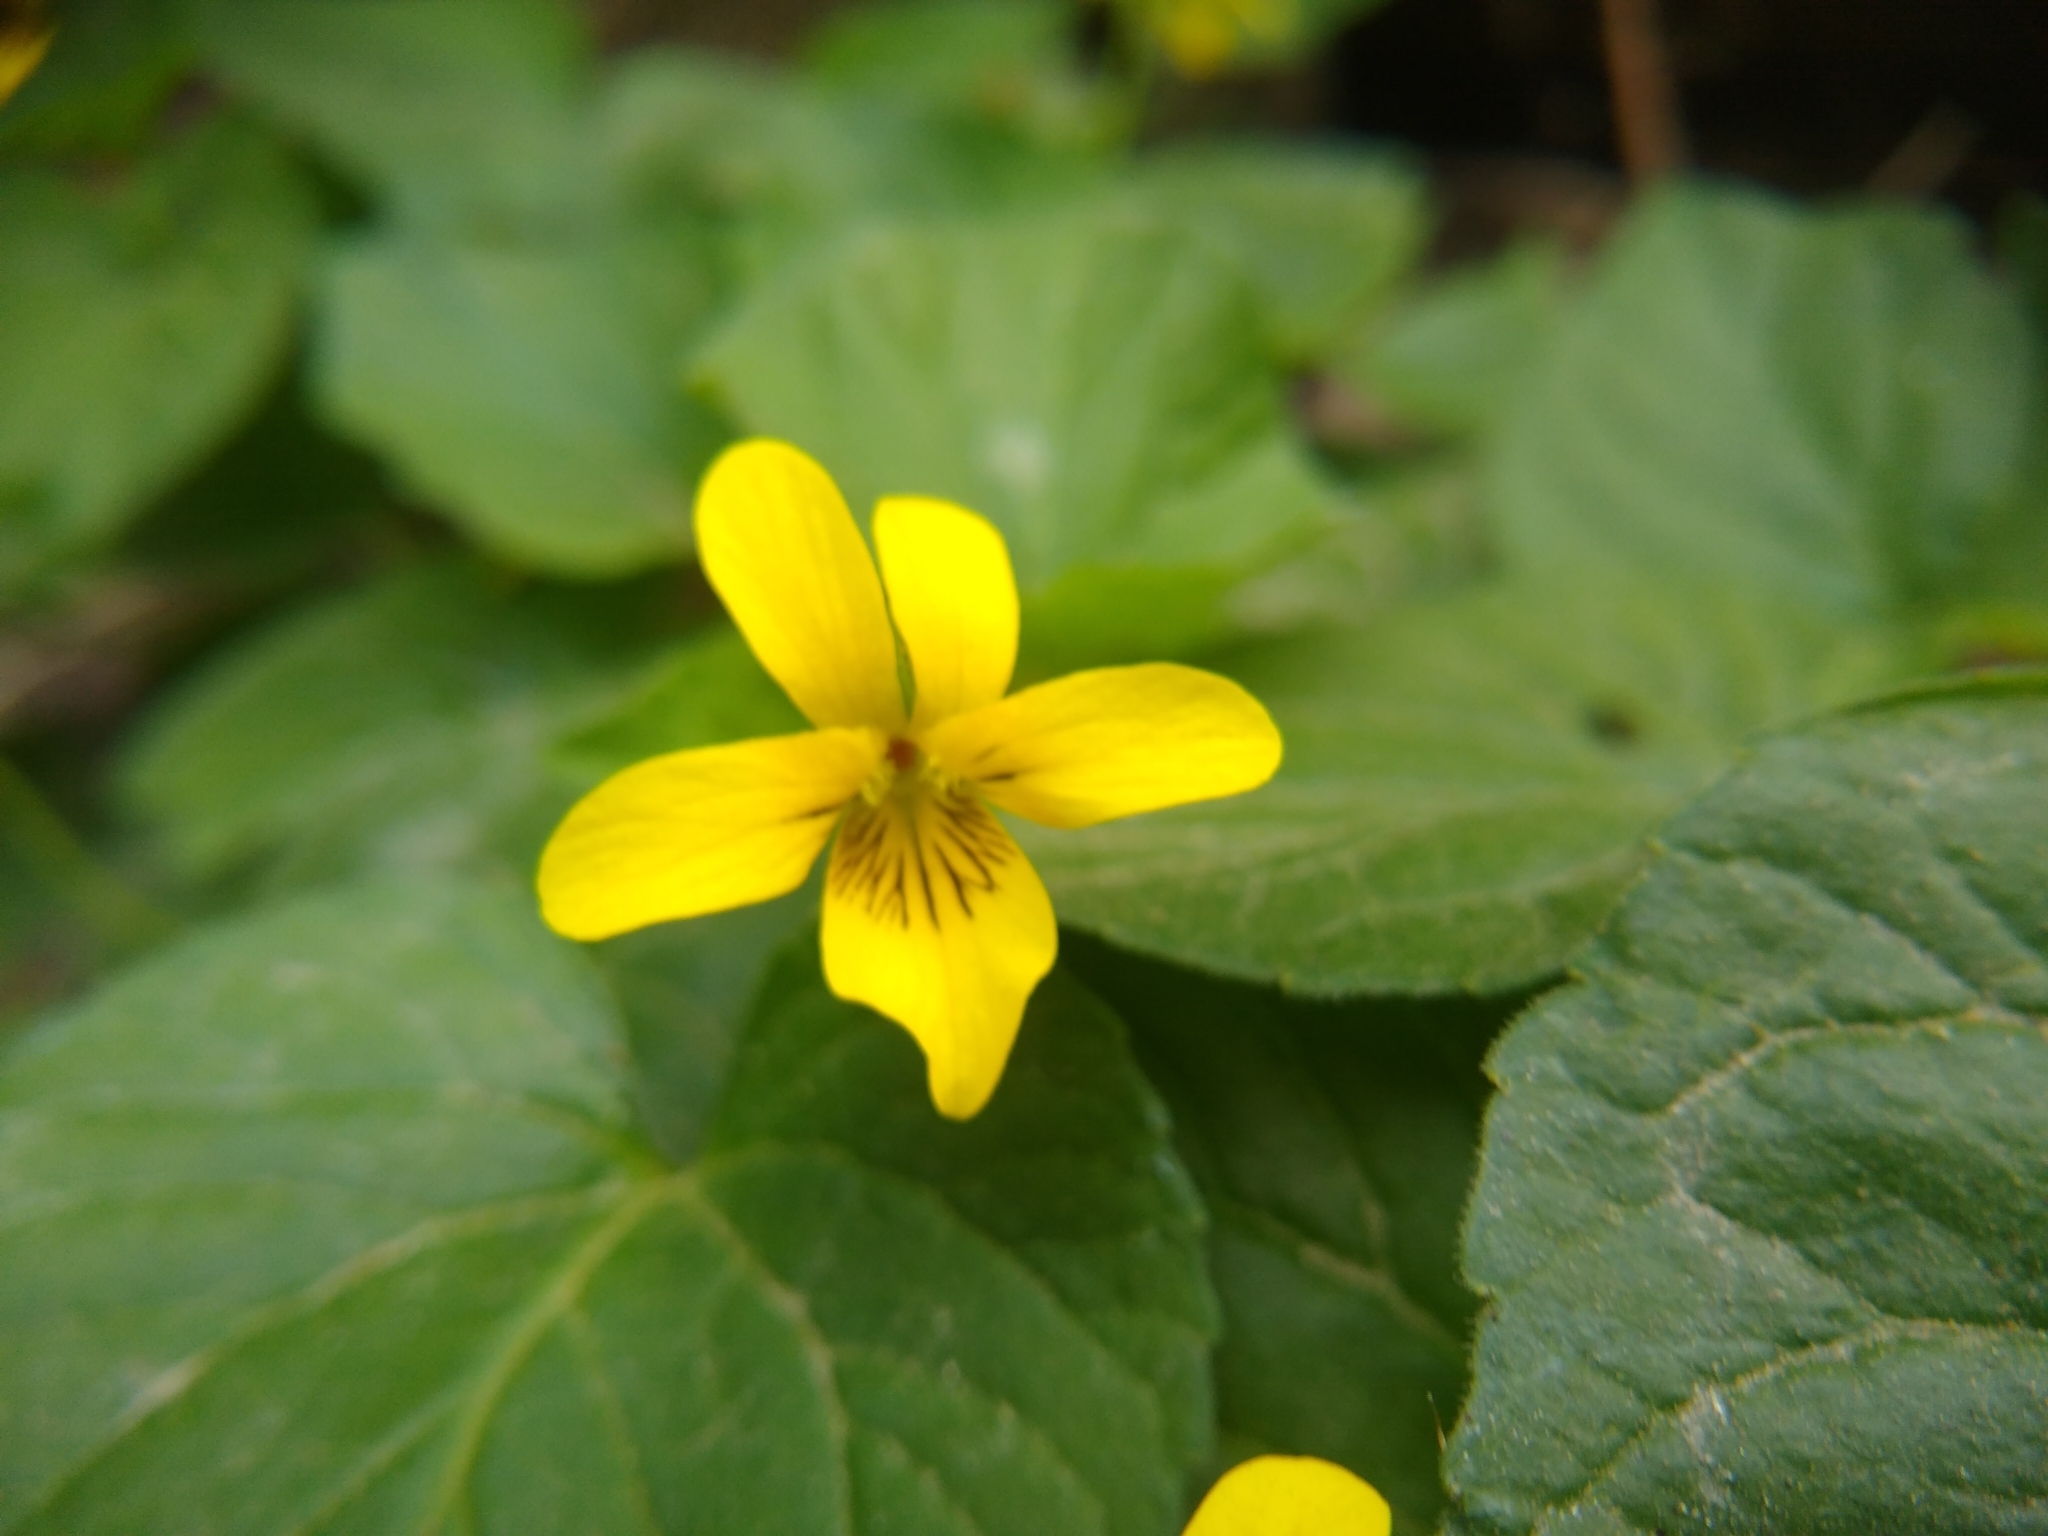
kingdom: Plantae
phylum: Tracheophyta
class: Magnoliopsida
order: Malpighiales
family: Violaceae
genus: Viola
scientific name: Viola glabella
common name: Stream violet
